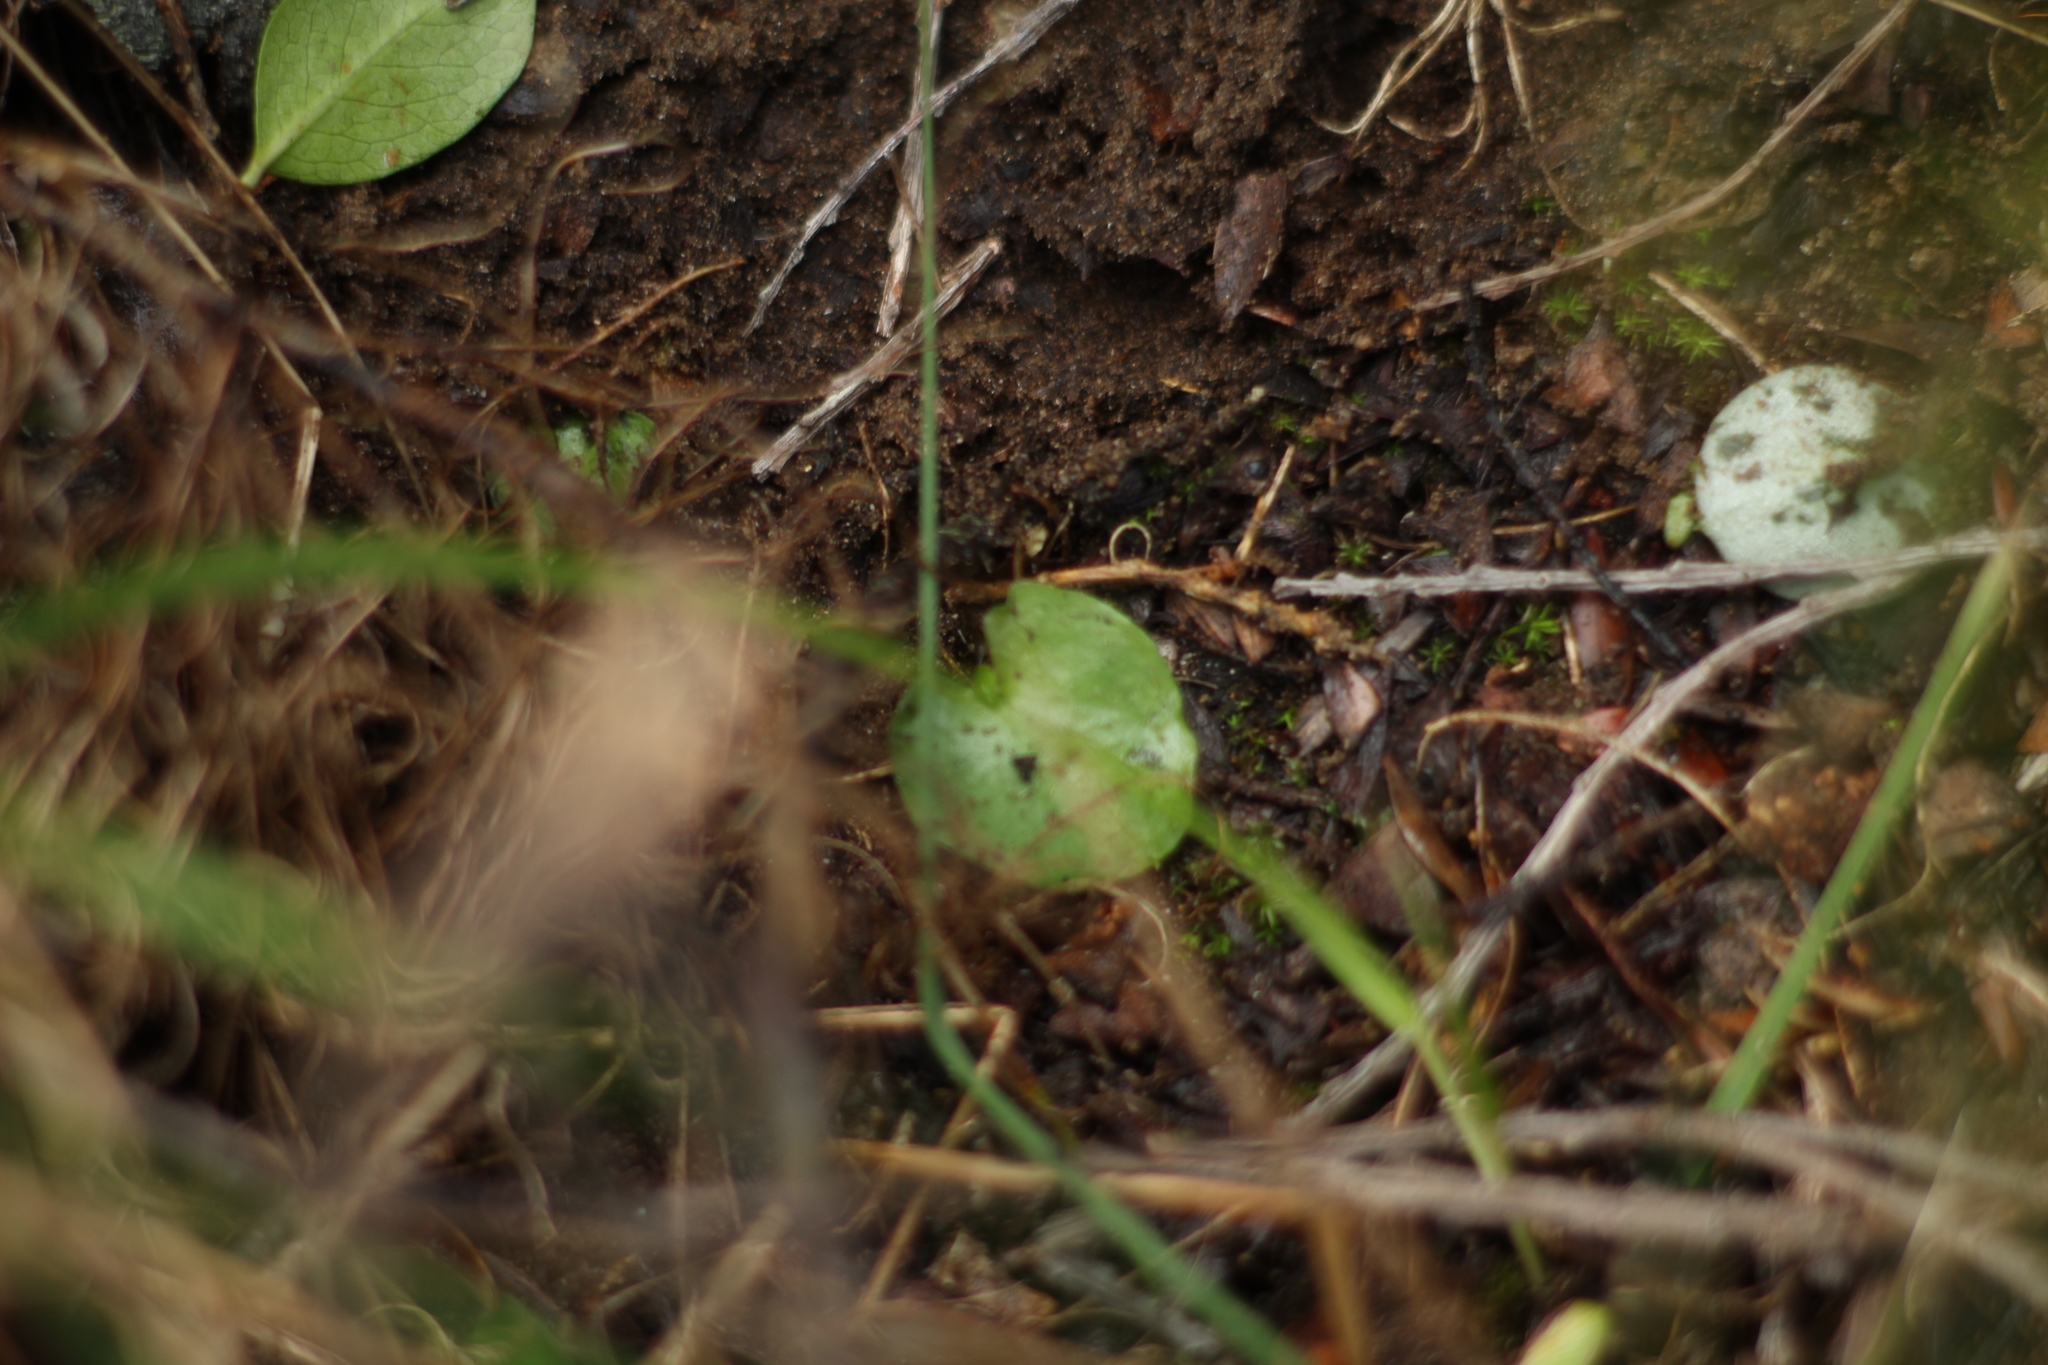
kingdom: Plantae
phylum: Tracheophyta
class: Liliopsida
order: Asparagales
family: Orchidaceae
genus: Corybas
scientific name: Corybas despectans
